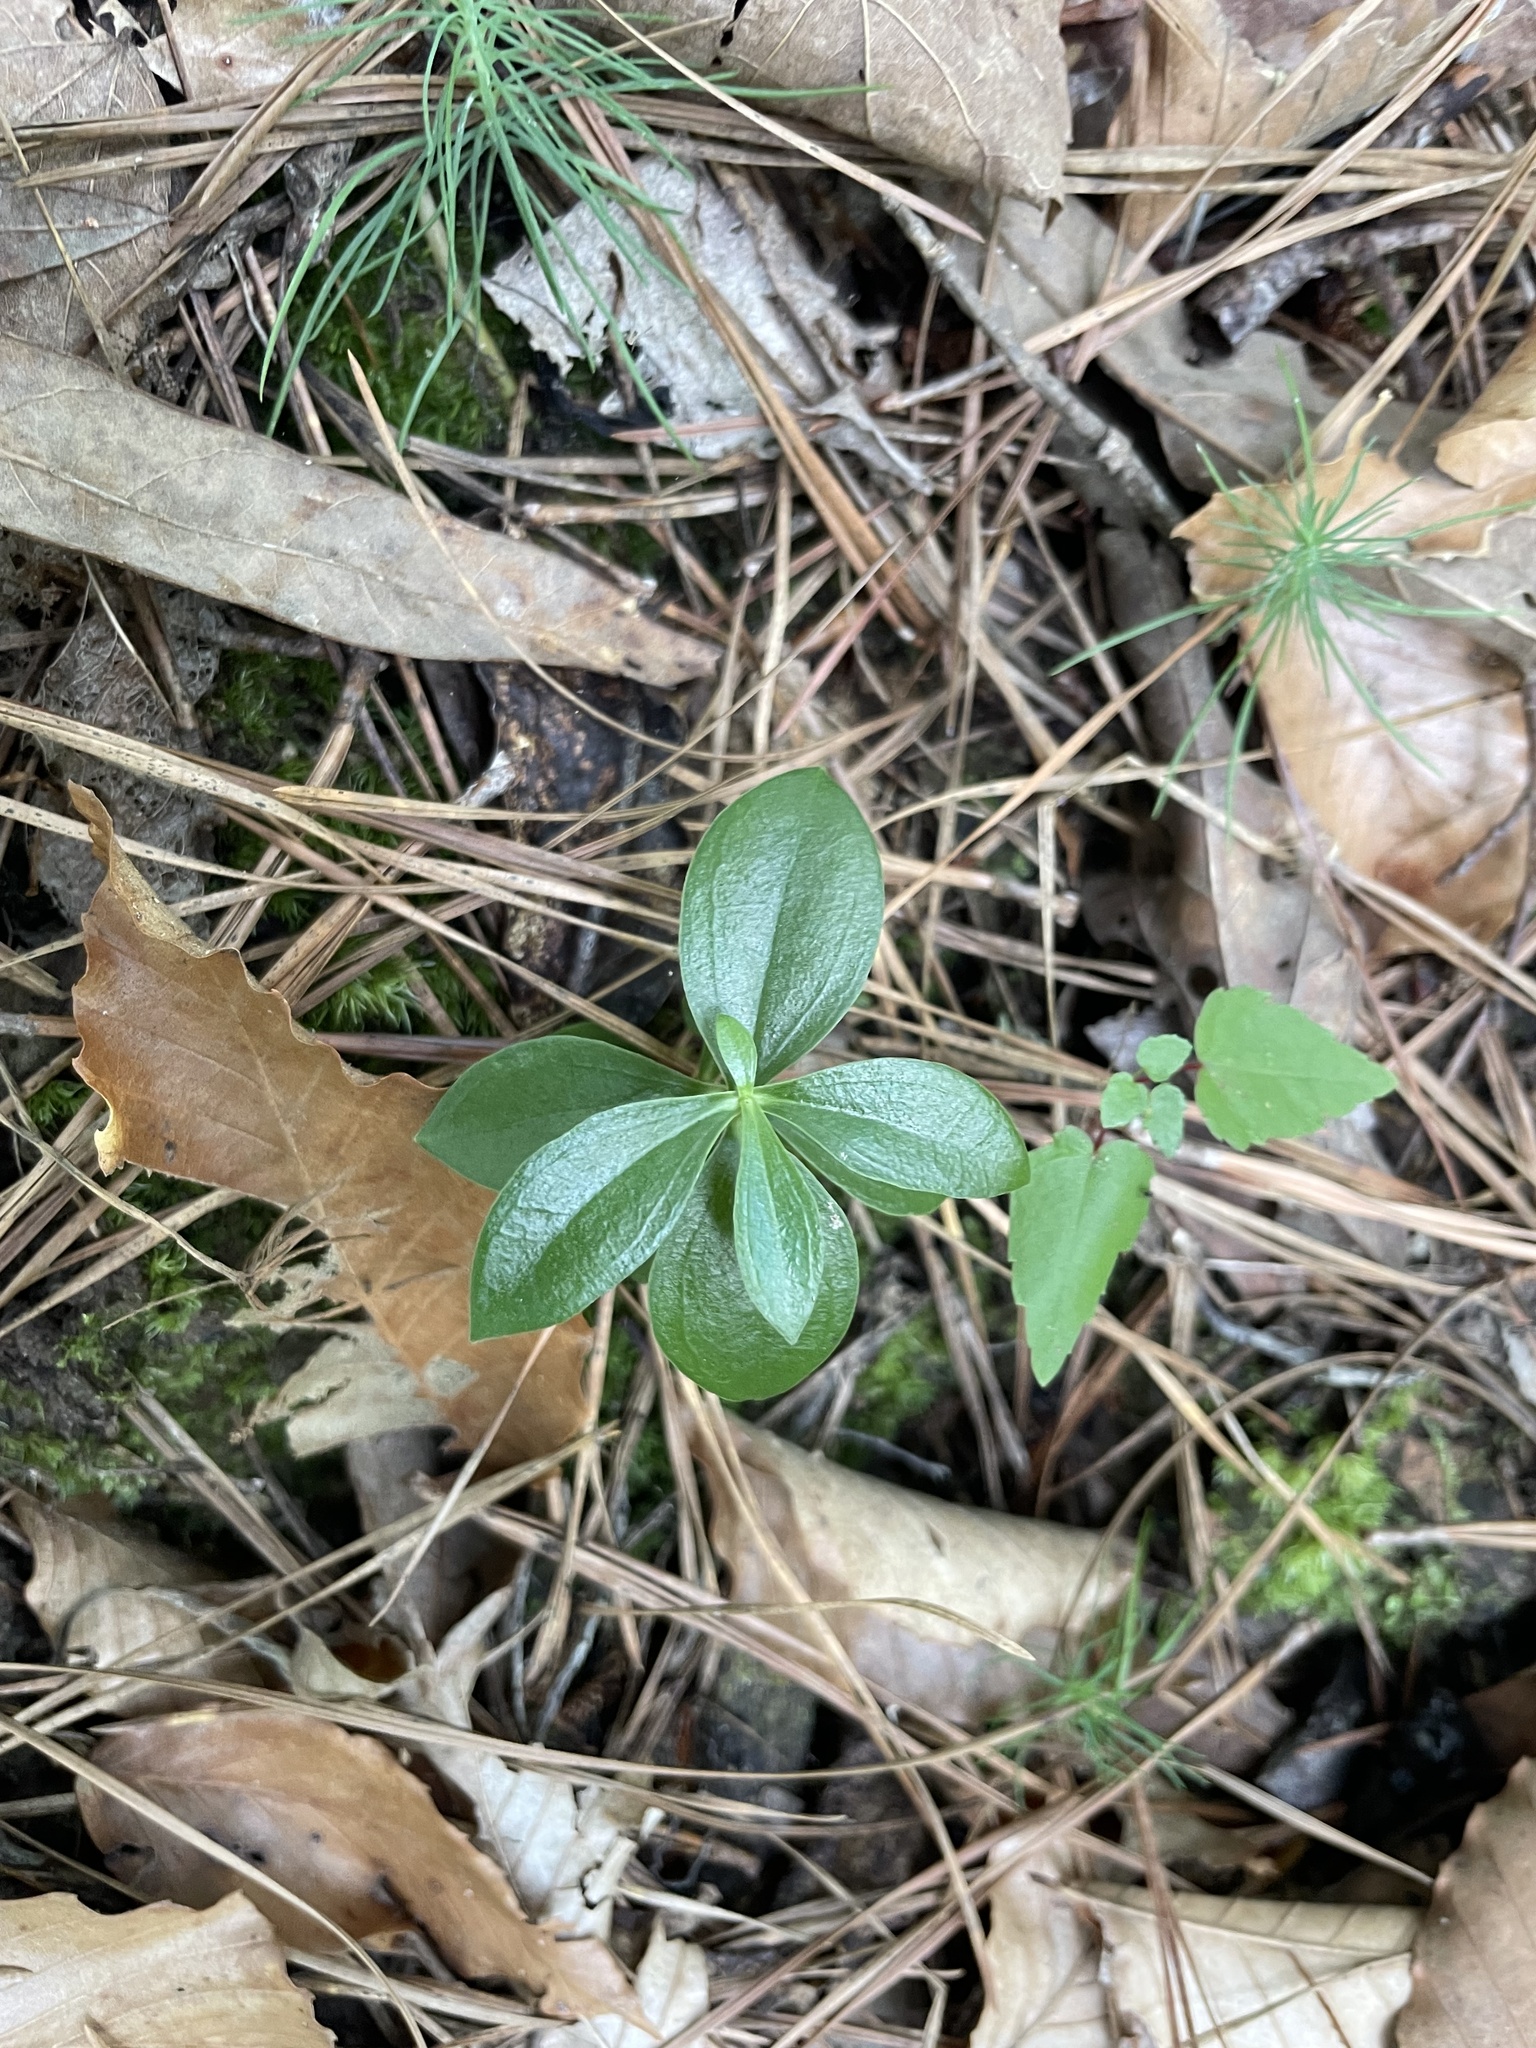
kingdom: Plantae
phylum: Tracheophyta
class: Magnoliopsida
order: Gentianales
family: Gentianaceae
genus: Gentiana
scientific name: Gentiana villosa
